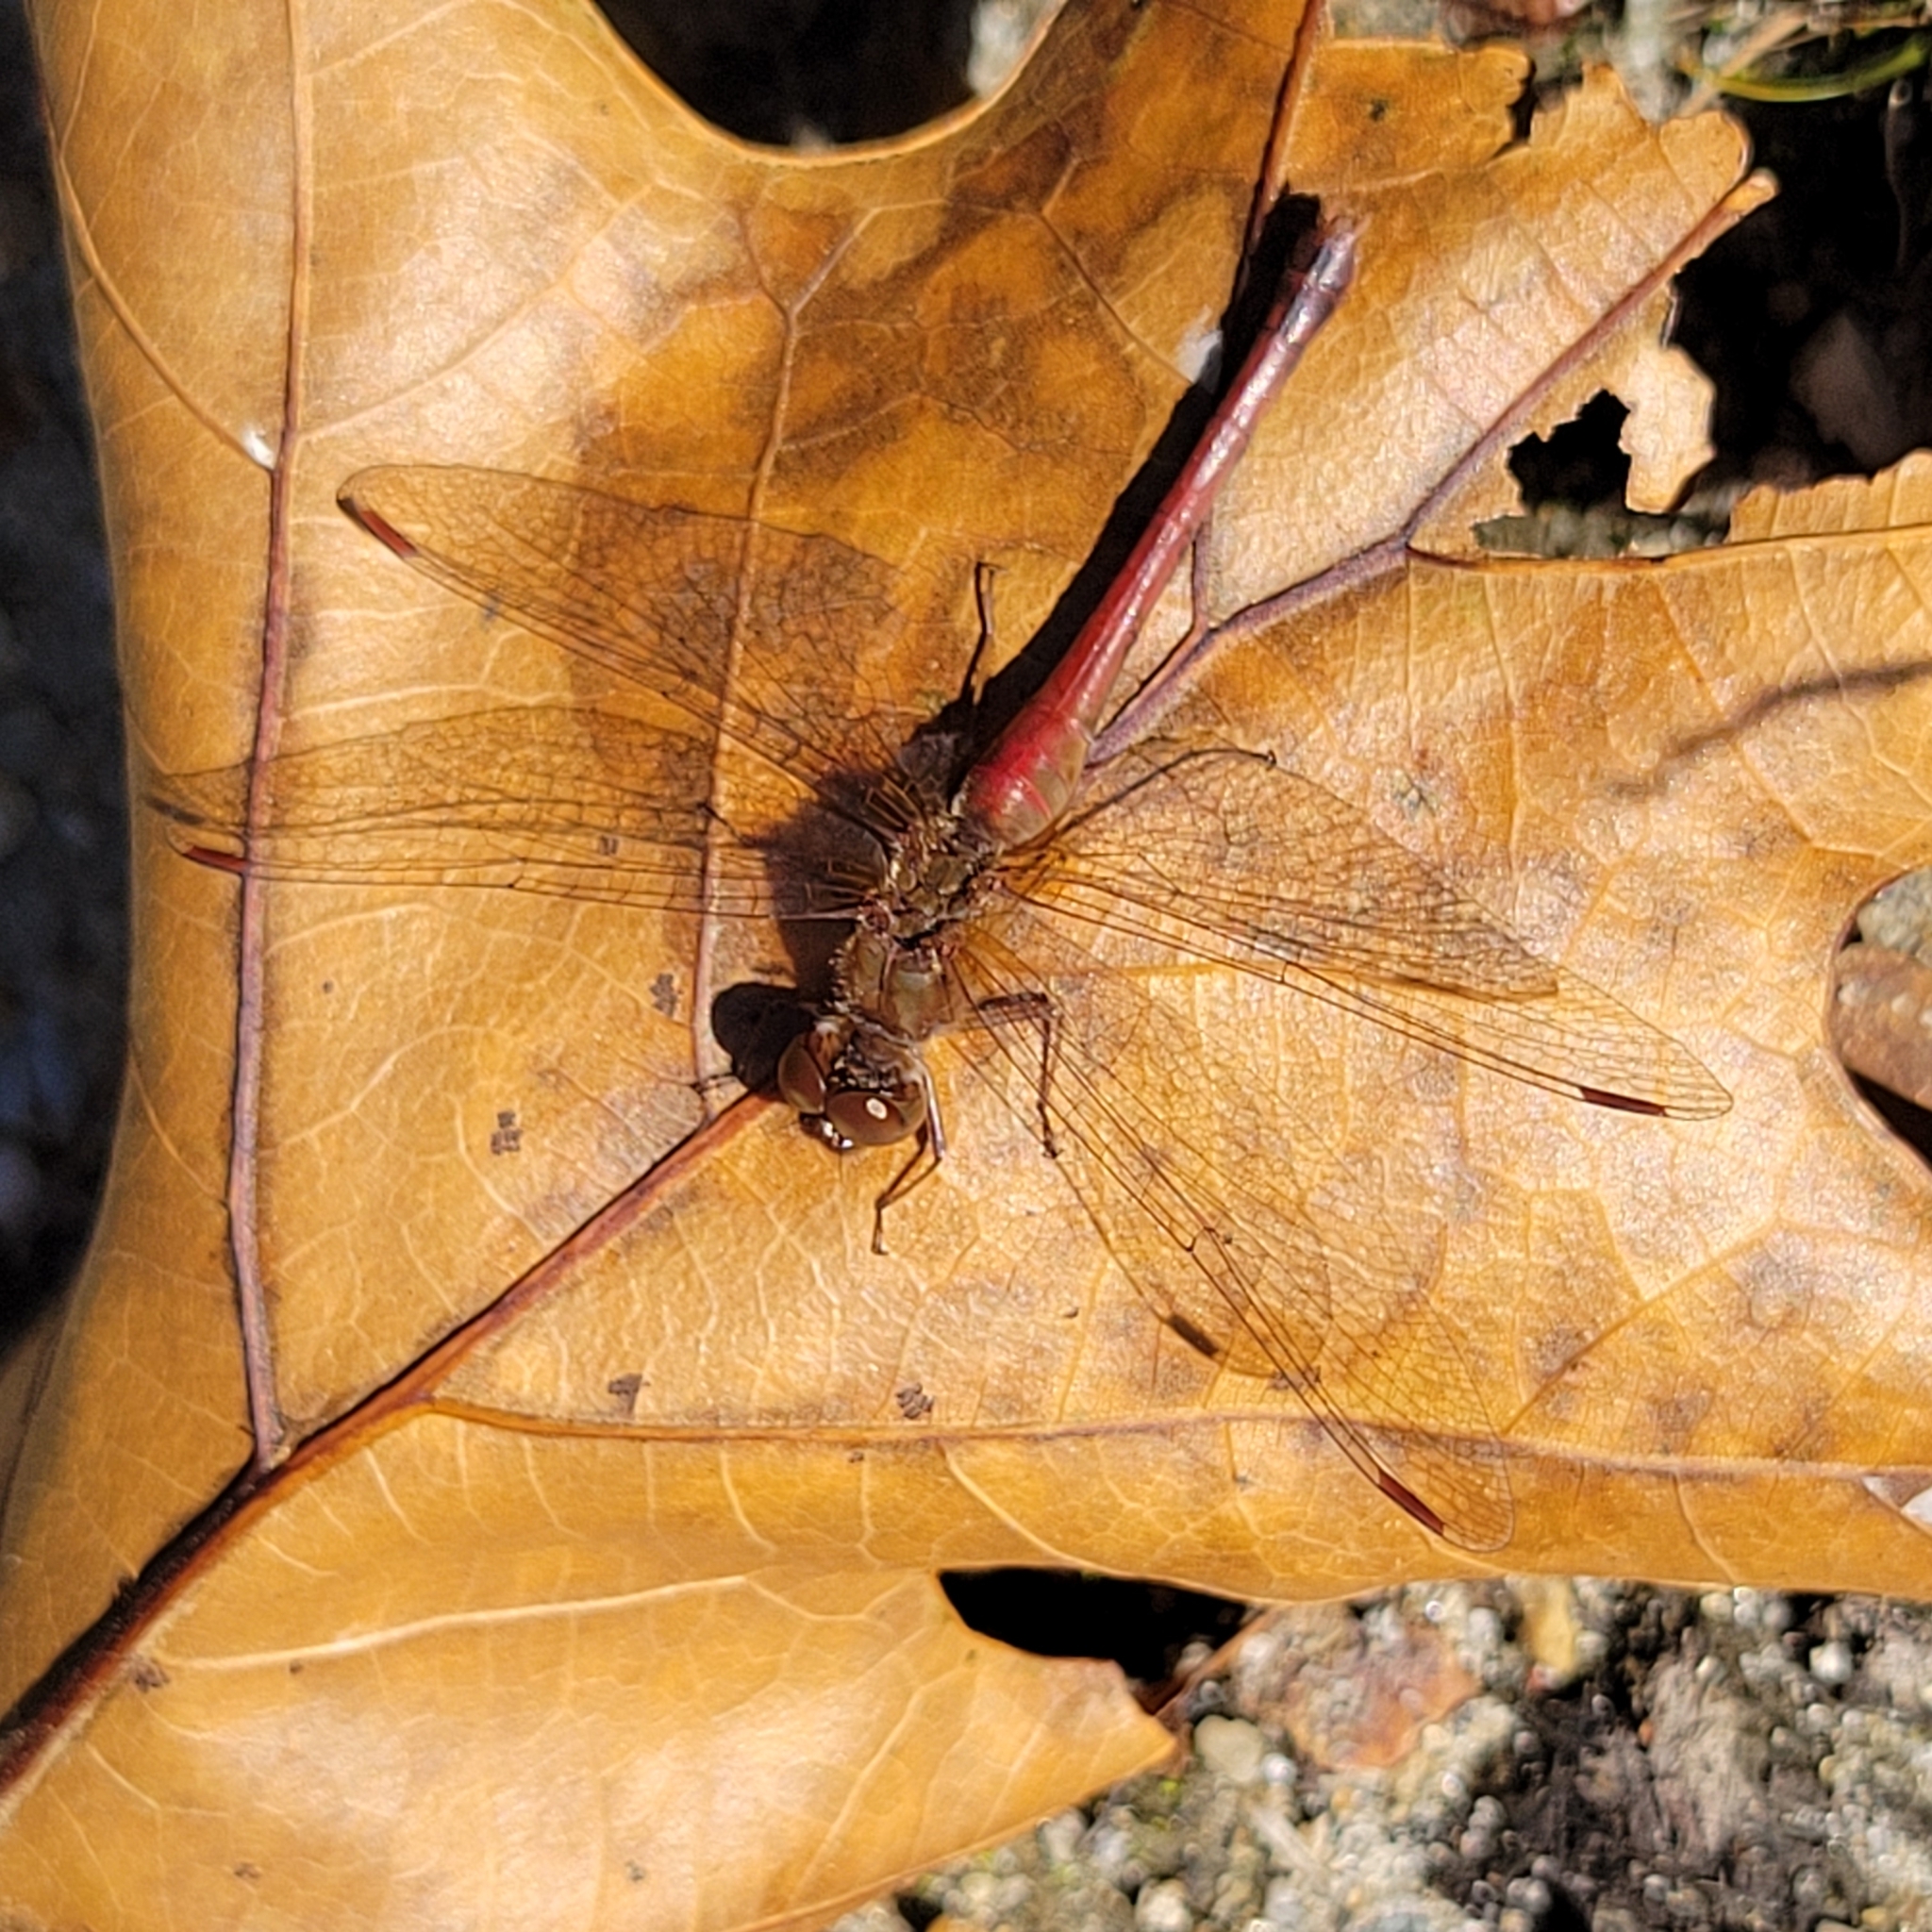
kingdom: Animalia
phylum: Arthropoda
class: Insecta
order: Odonata
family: Libellulidae
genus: Sympetrum
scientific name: Sympetrum vicinum
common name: Autumn meadowhawk
